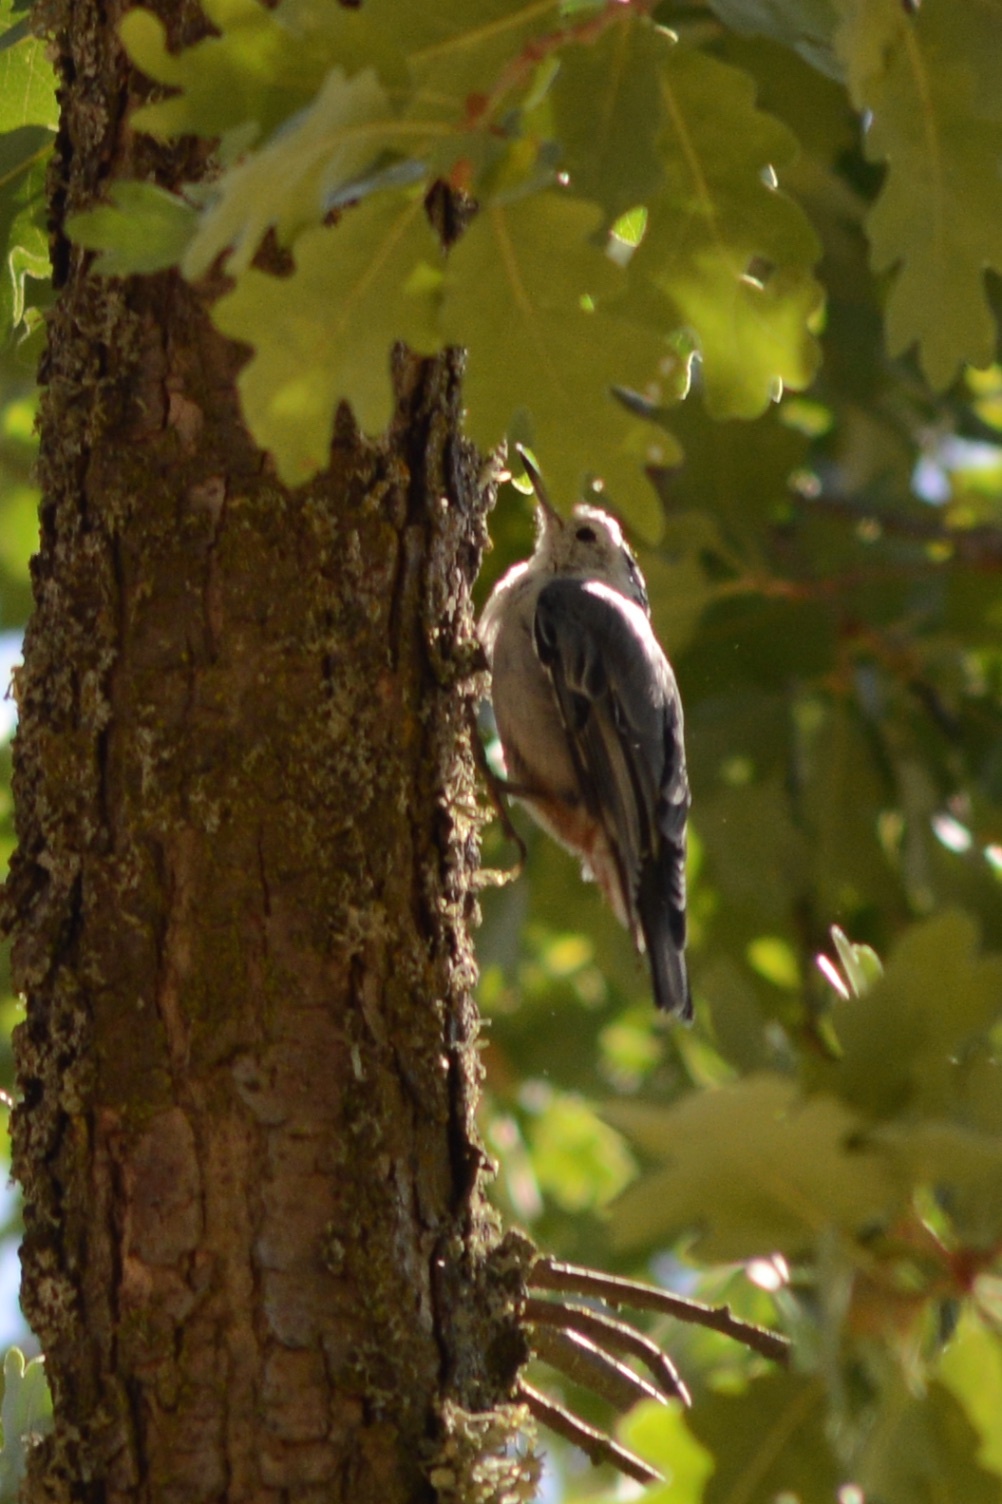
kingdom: Animalia
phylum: Chordata
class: Aves
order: Passeriformes
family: Sittidae
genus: Sitta
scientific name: Sitta carolinensis
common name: White-breasted nuthatch
